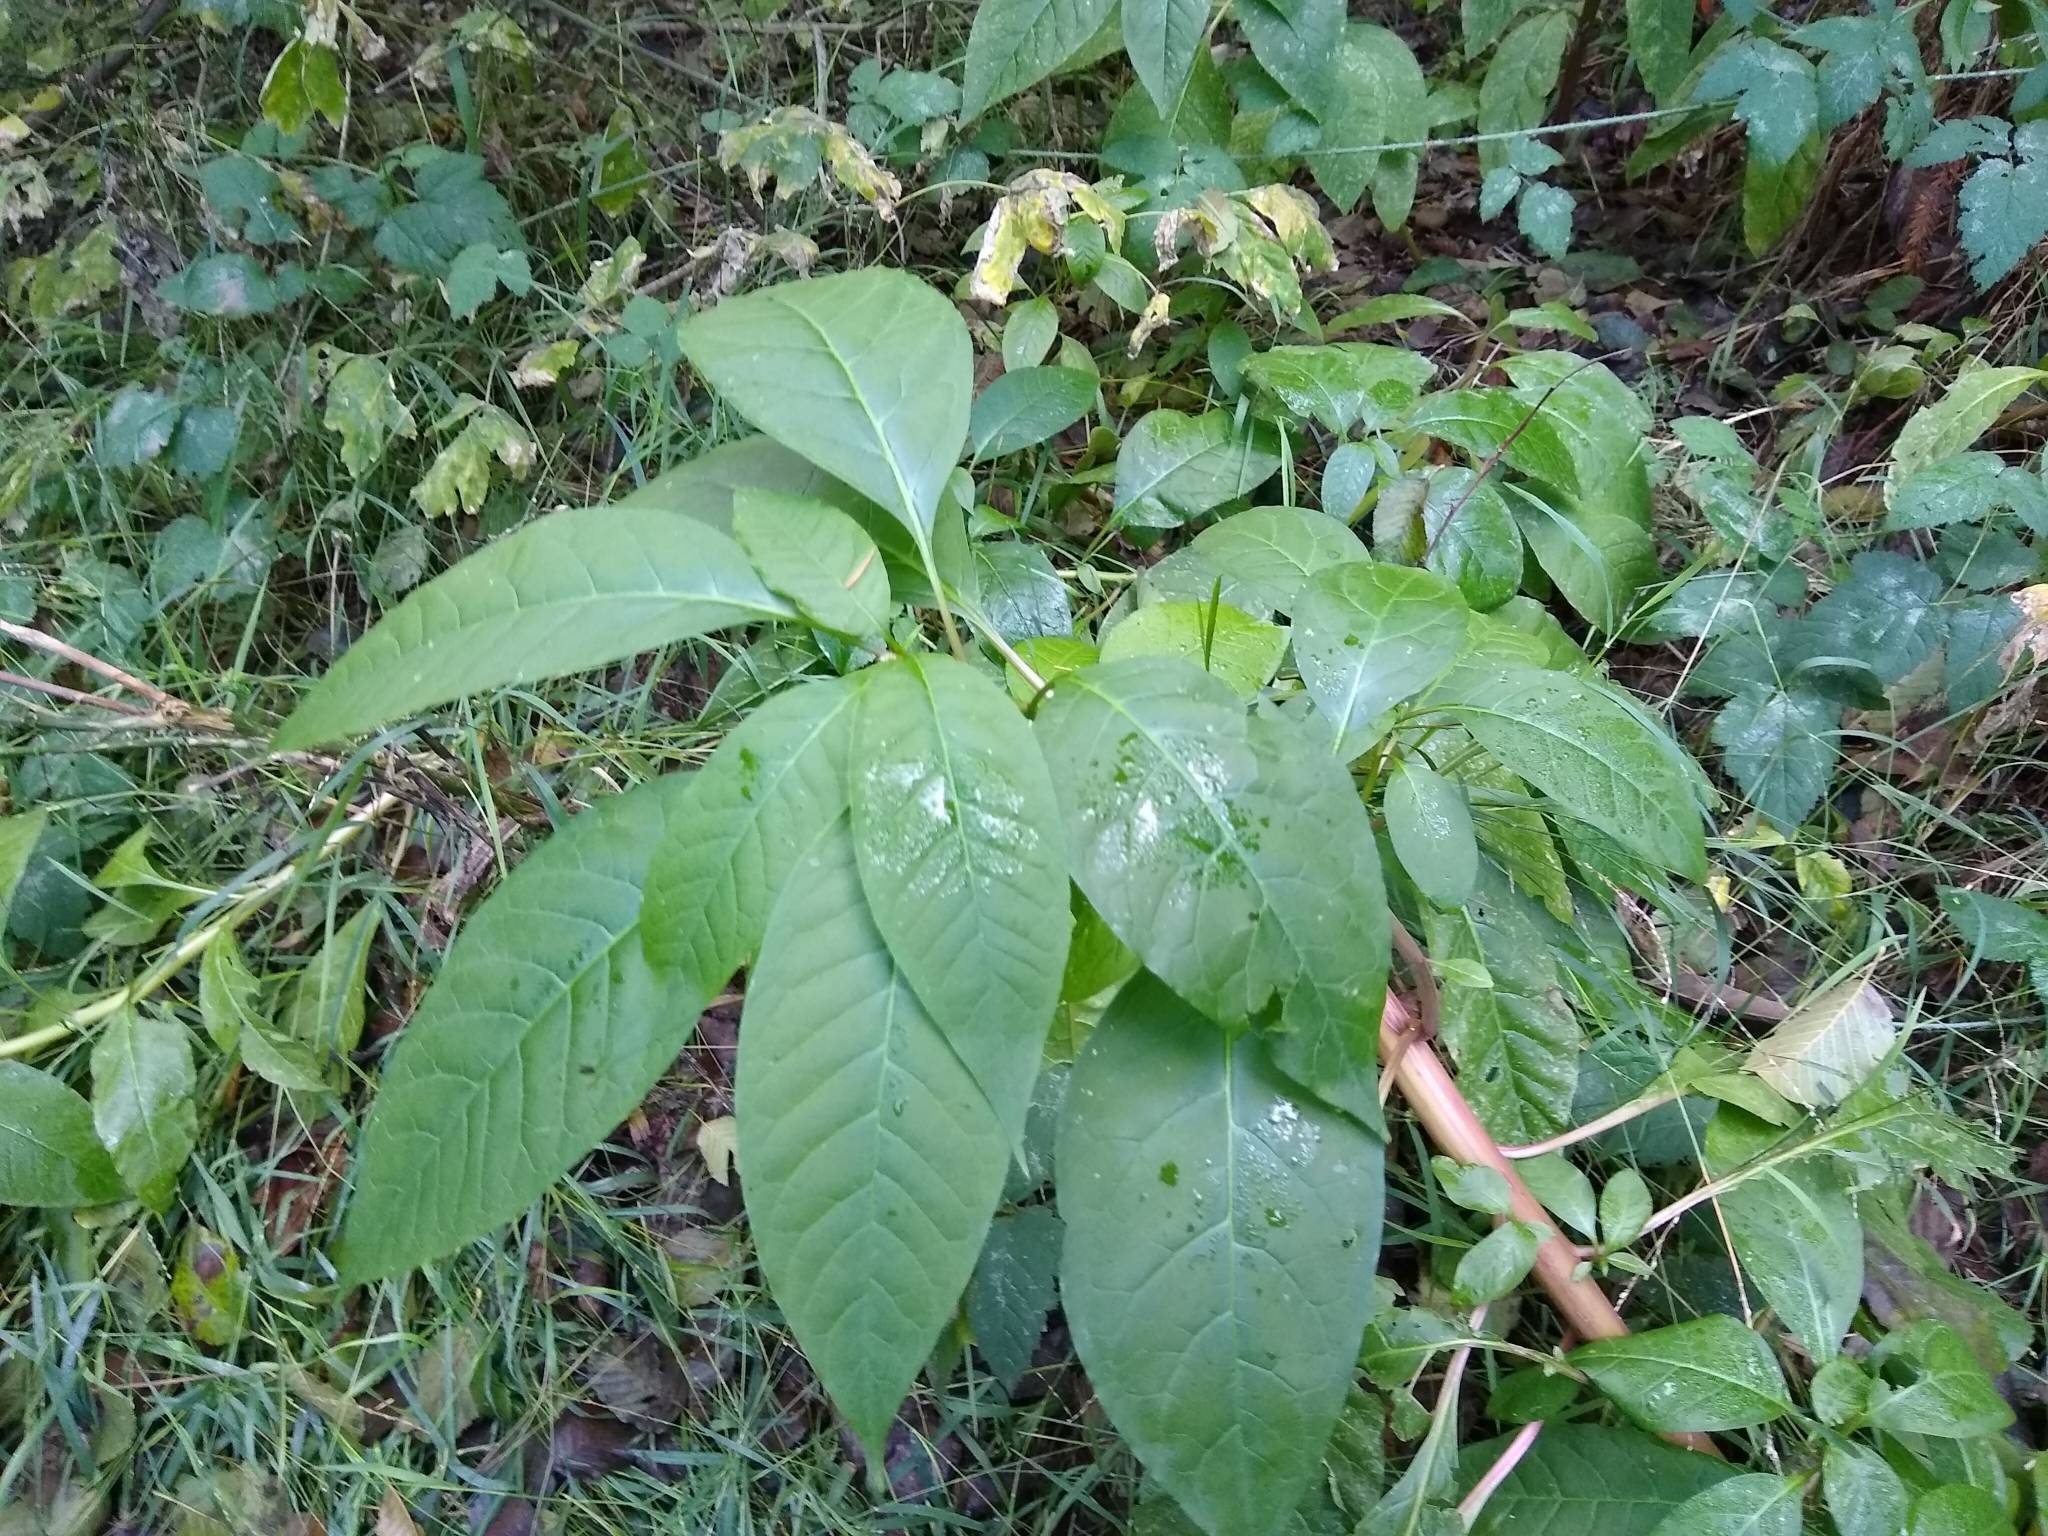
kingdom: Plantae
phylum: Tracheophyta
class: Magnoliopsida
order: Caryophyllales
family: Phytolaccaceae
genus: Phytolacca
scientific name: Phytolacca americana
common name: American pokeweed
